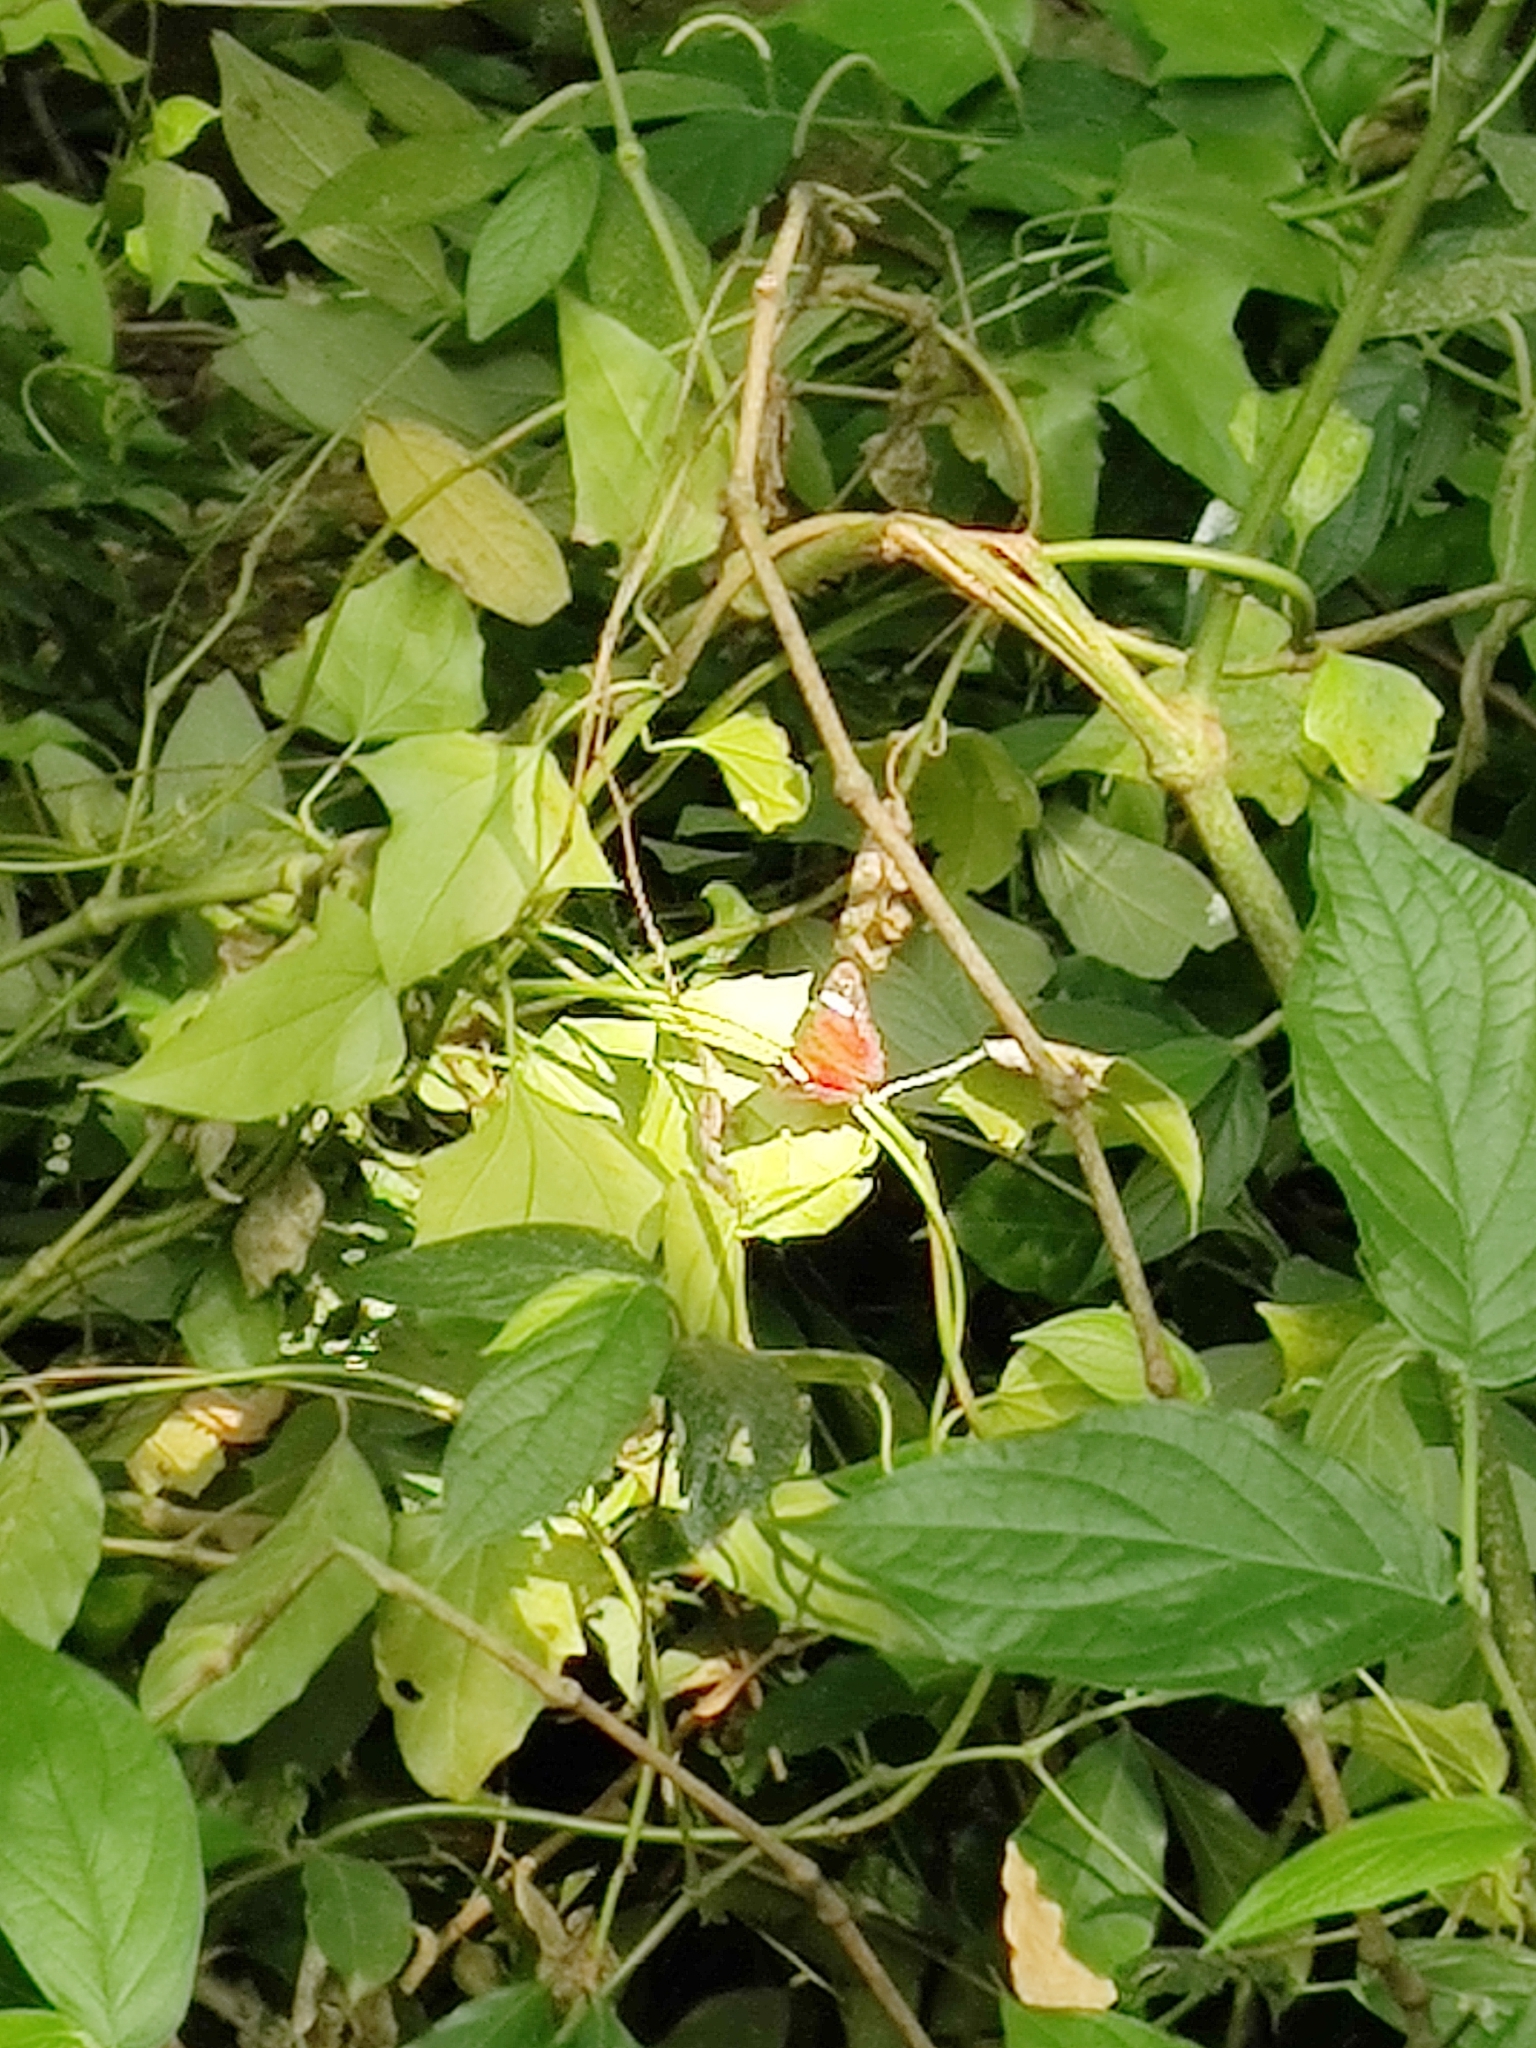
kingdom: Animalia
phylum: Arthropoda
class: Insecta
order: Lepidoptera
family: Nymphalidae
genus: Anartia
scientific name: Anartia amathea
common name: Red peacock
